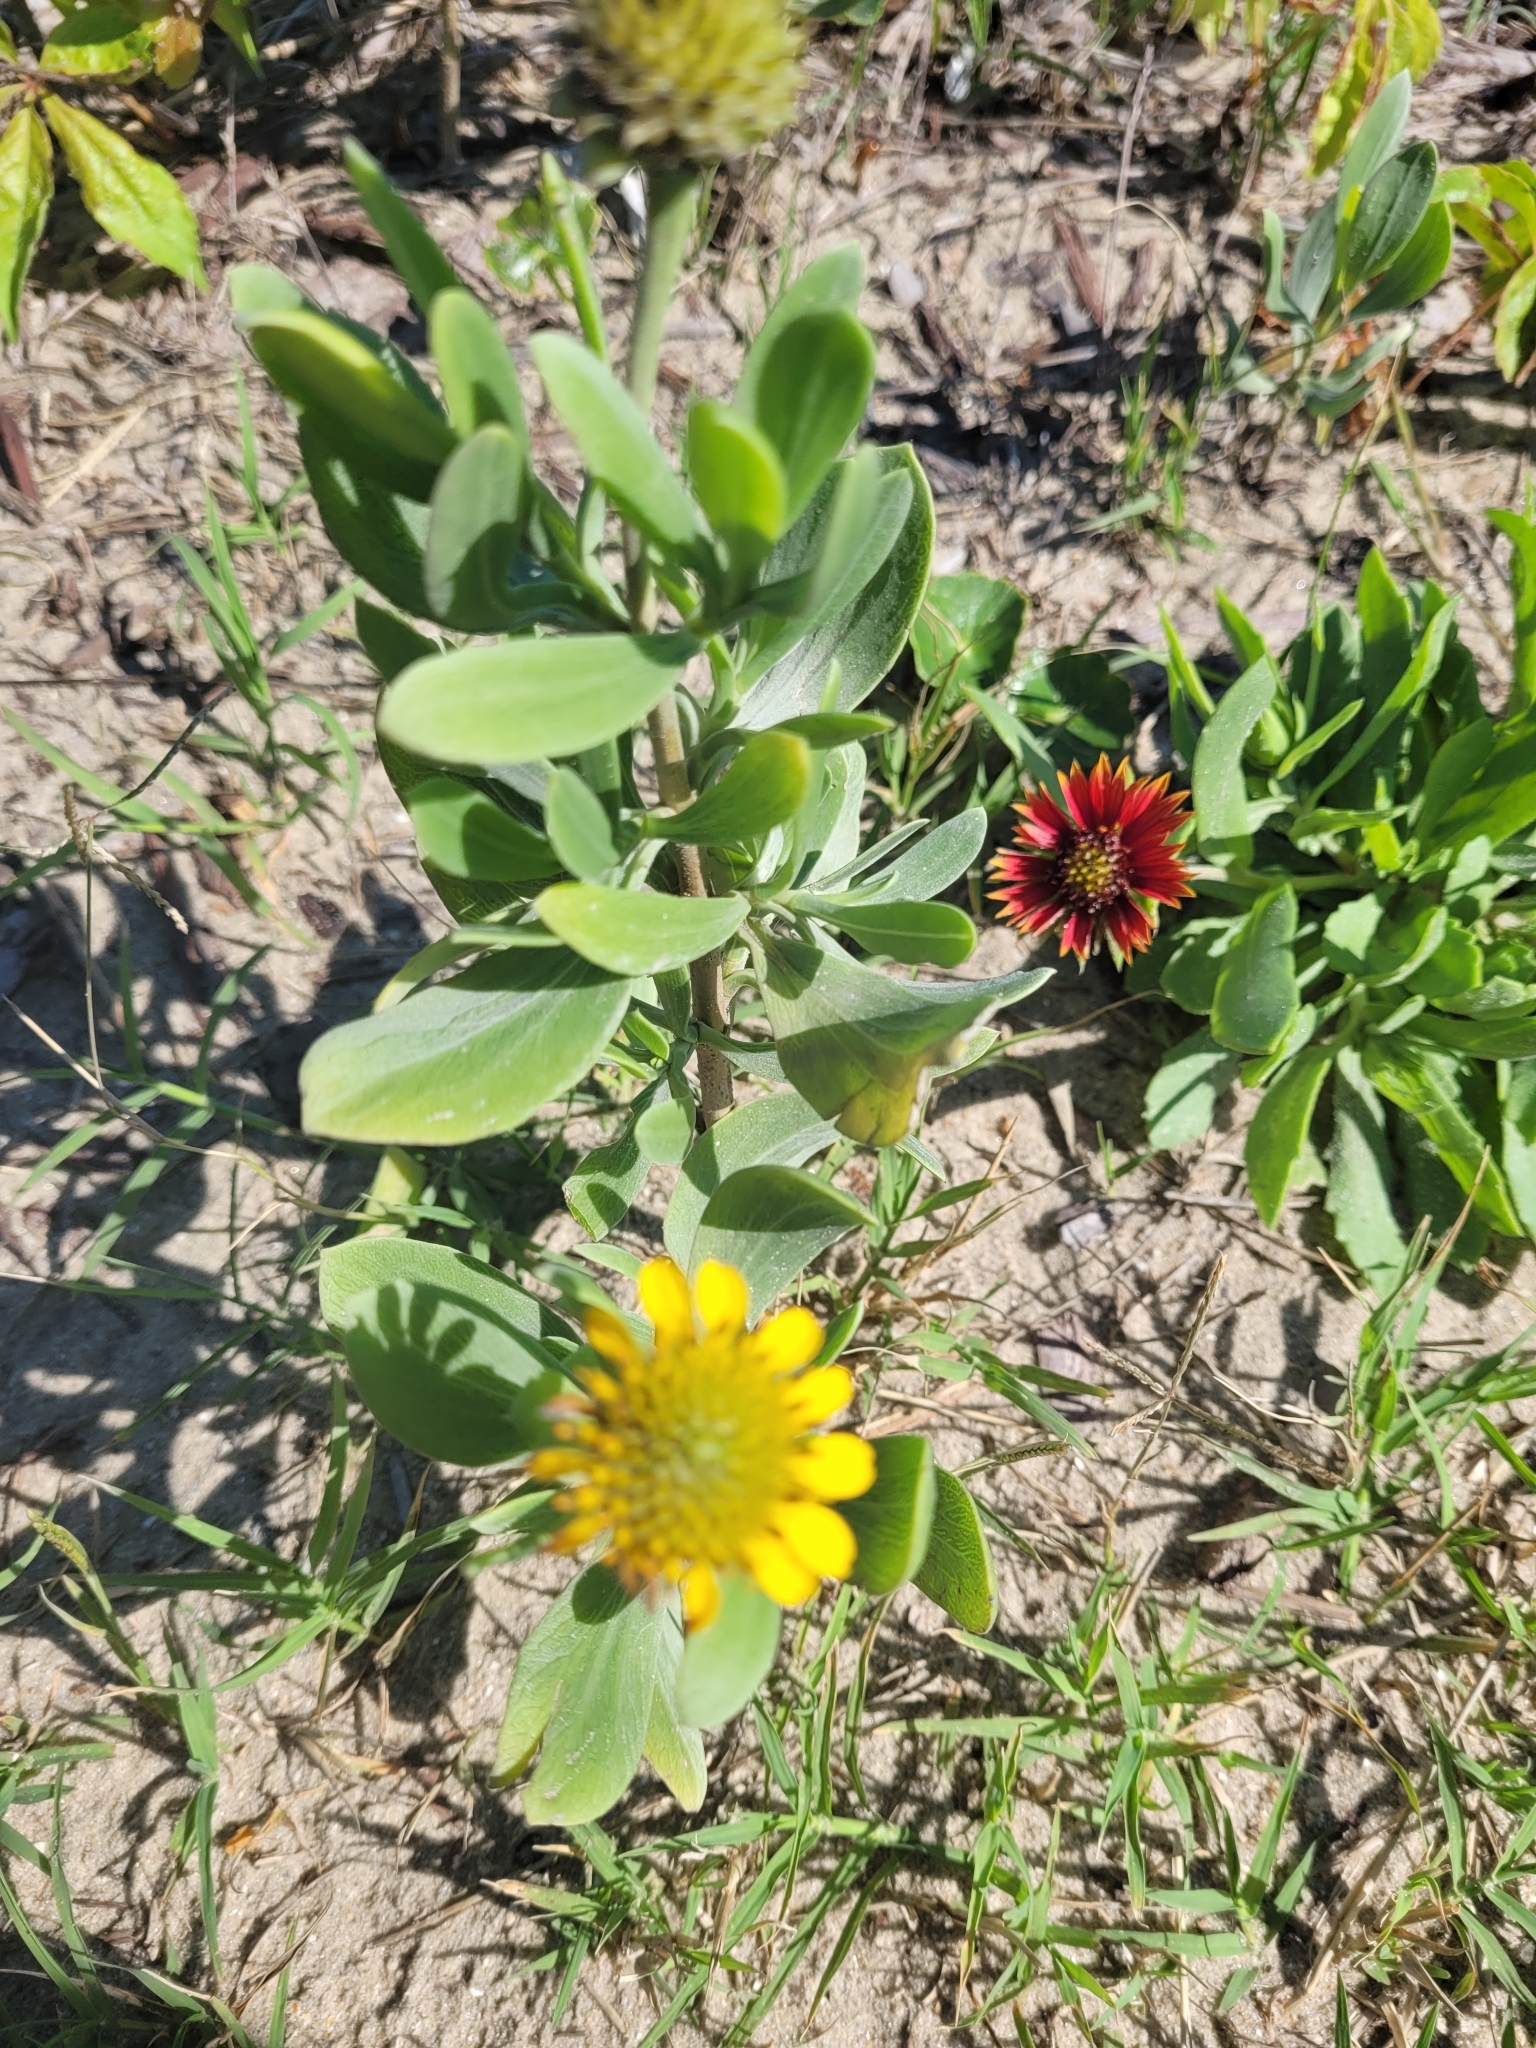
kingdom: Plantae
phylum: Tracheophyta
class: Magnoliopsida
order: Asterales
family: Asteraceae
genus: Borrichia
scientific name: Borrichia frutescens
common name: Sea oxeye
